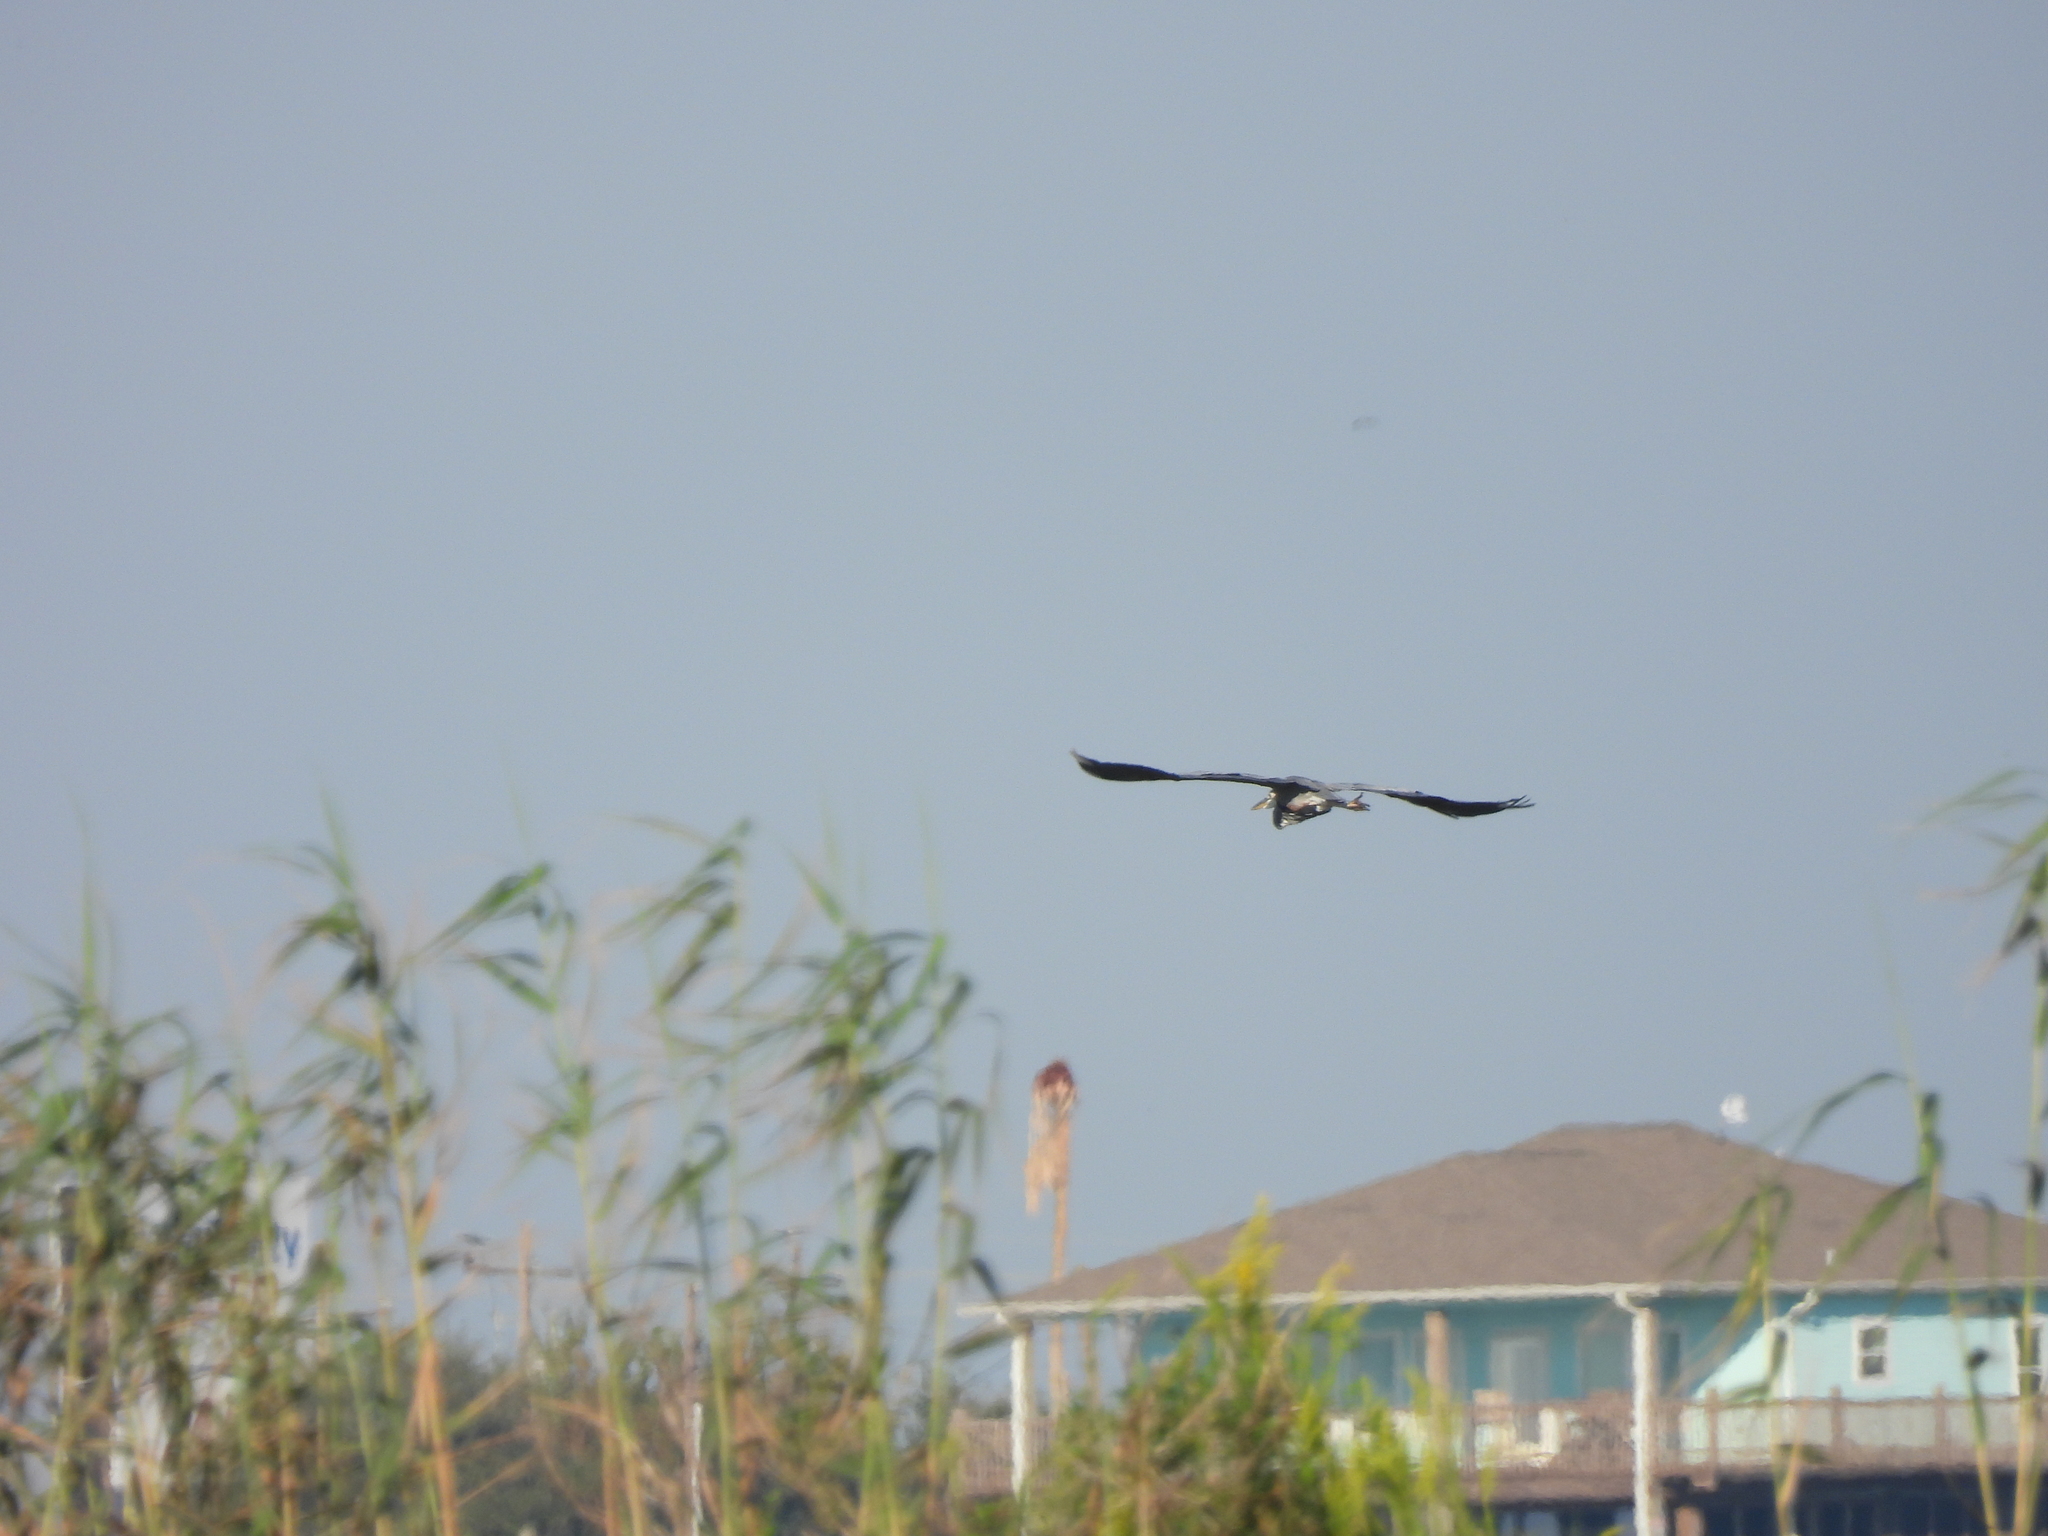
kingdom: Animalia
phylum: Chordata
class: Aves
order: Pelecaniformes
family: Ardeidae
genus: Ardea
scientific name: Ardea herodias
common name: Great blue heron
